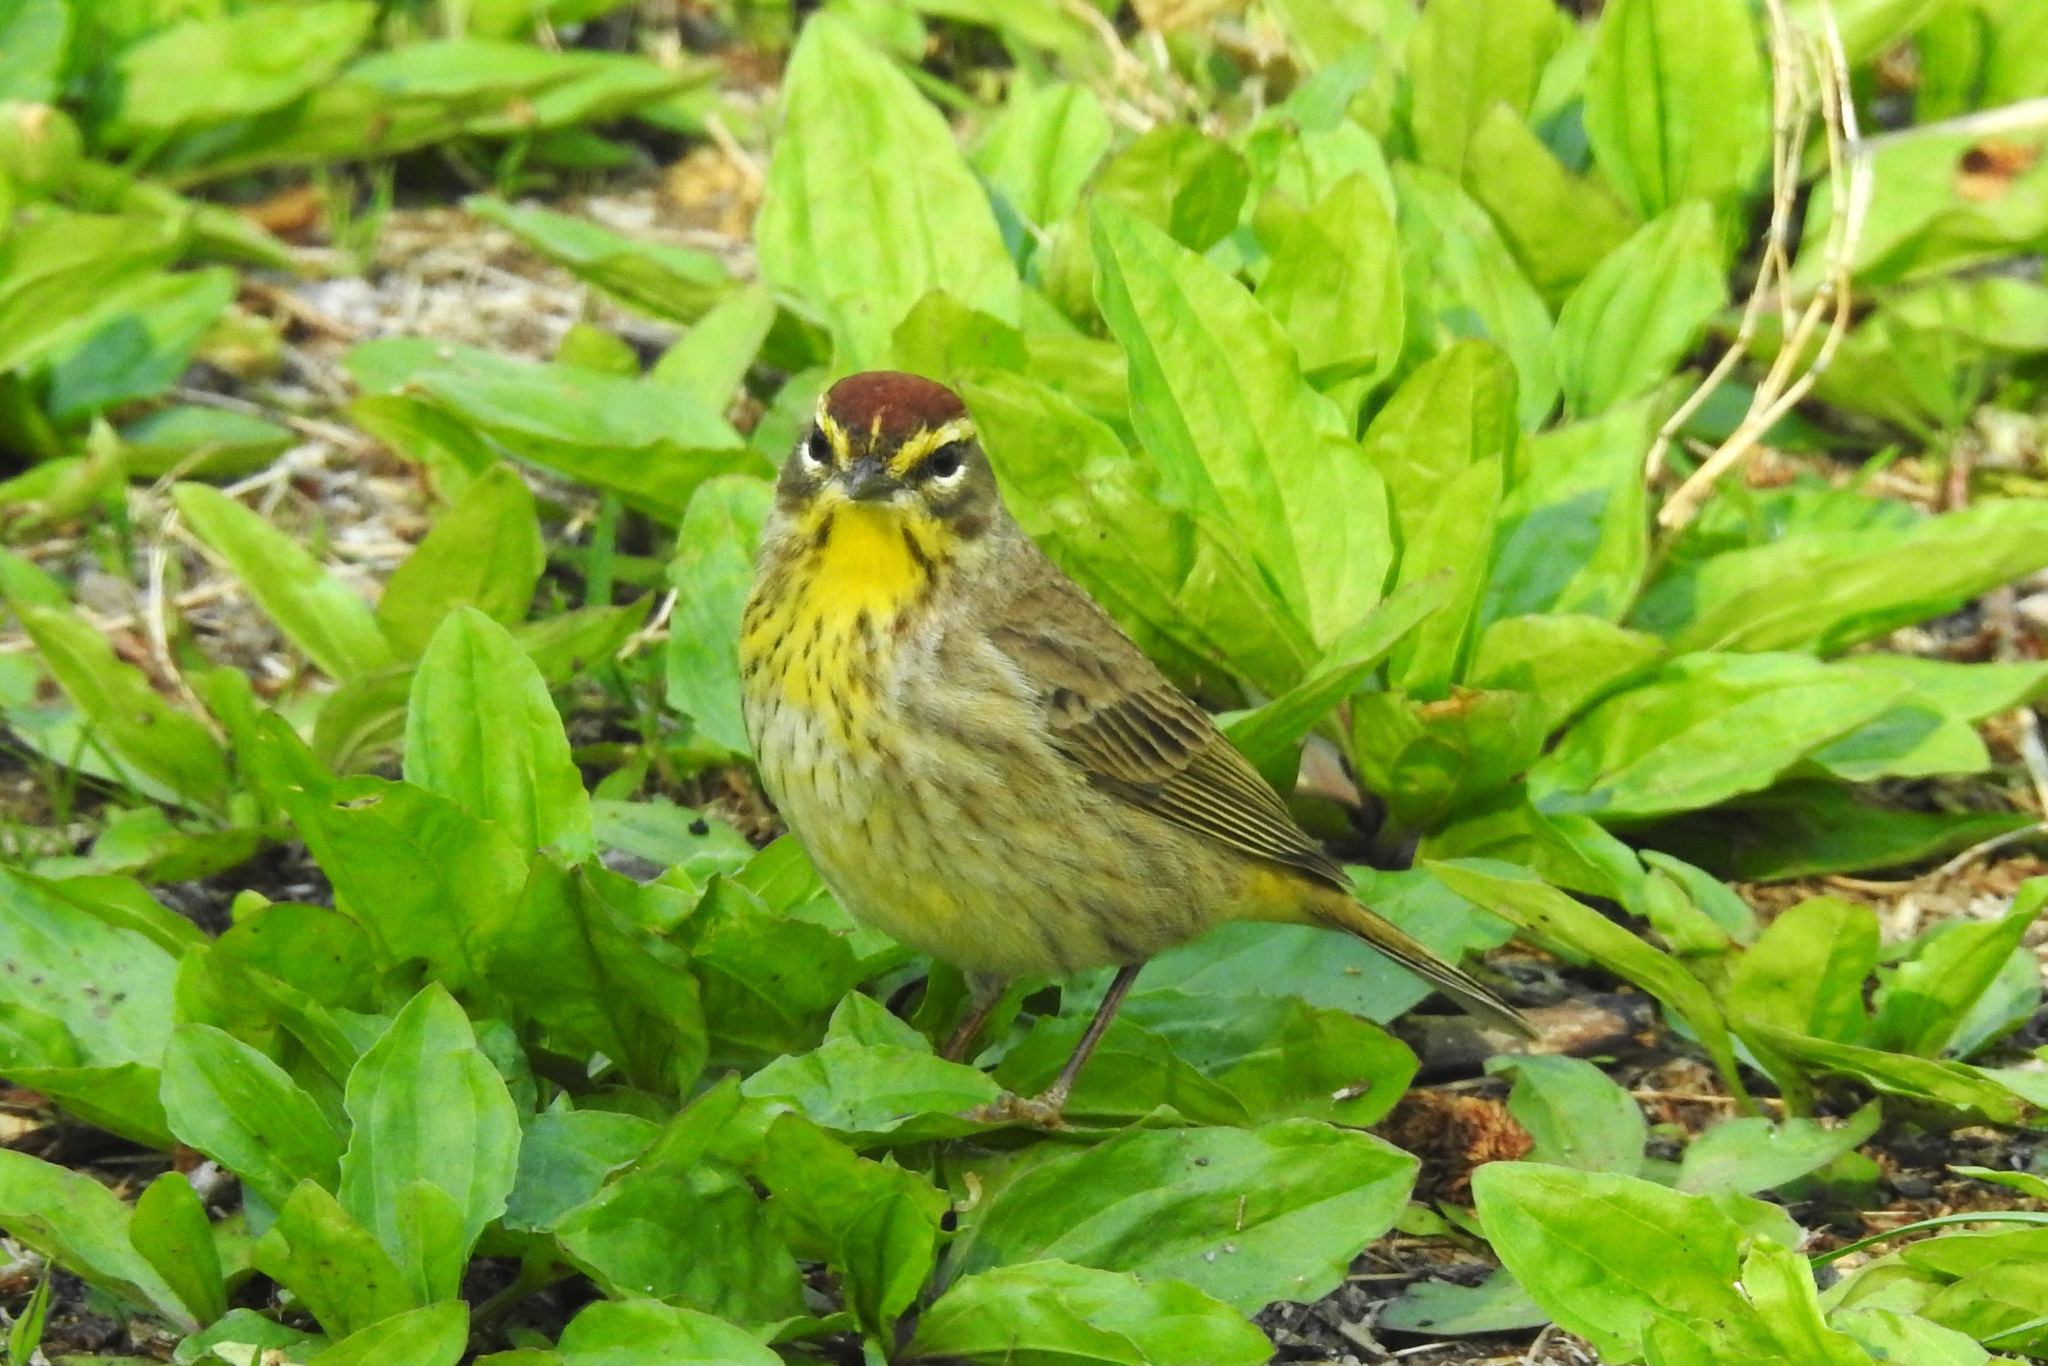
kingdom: Animalia
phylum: Chordata
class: Aves
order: Passeriformes
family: Parulidae
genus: Setophaga
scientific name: Setophaga palmarum
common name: Palm warbler
